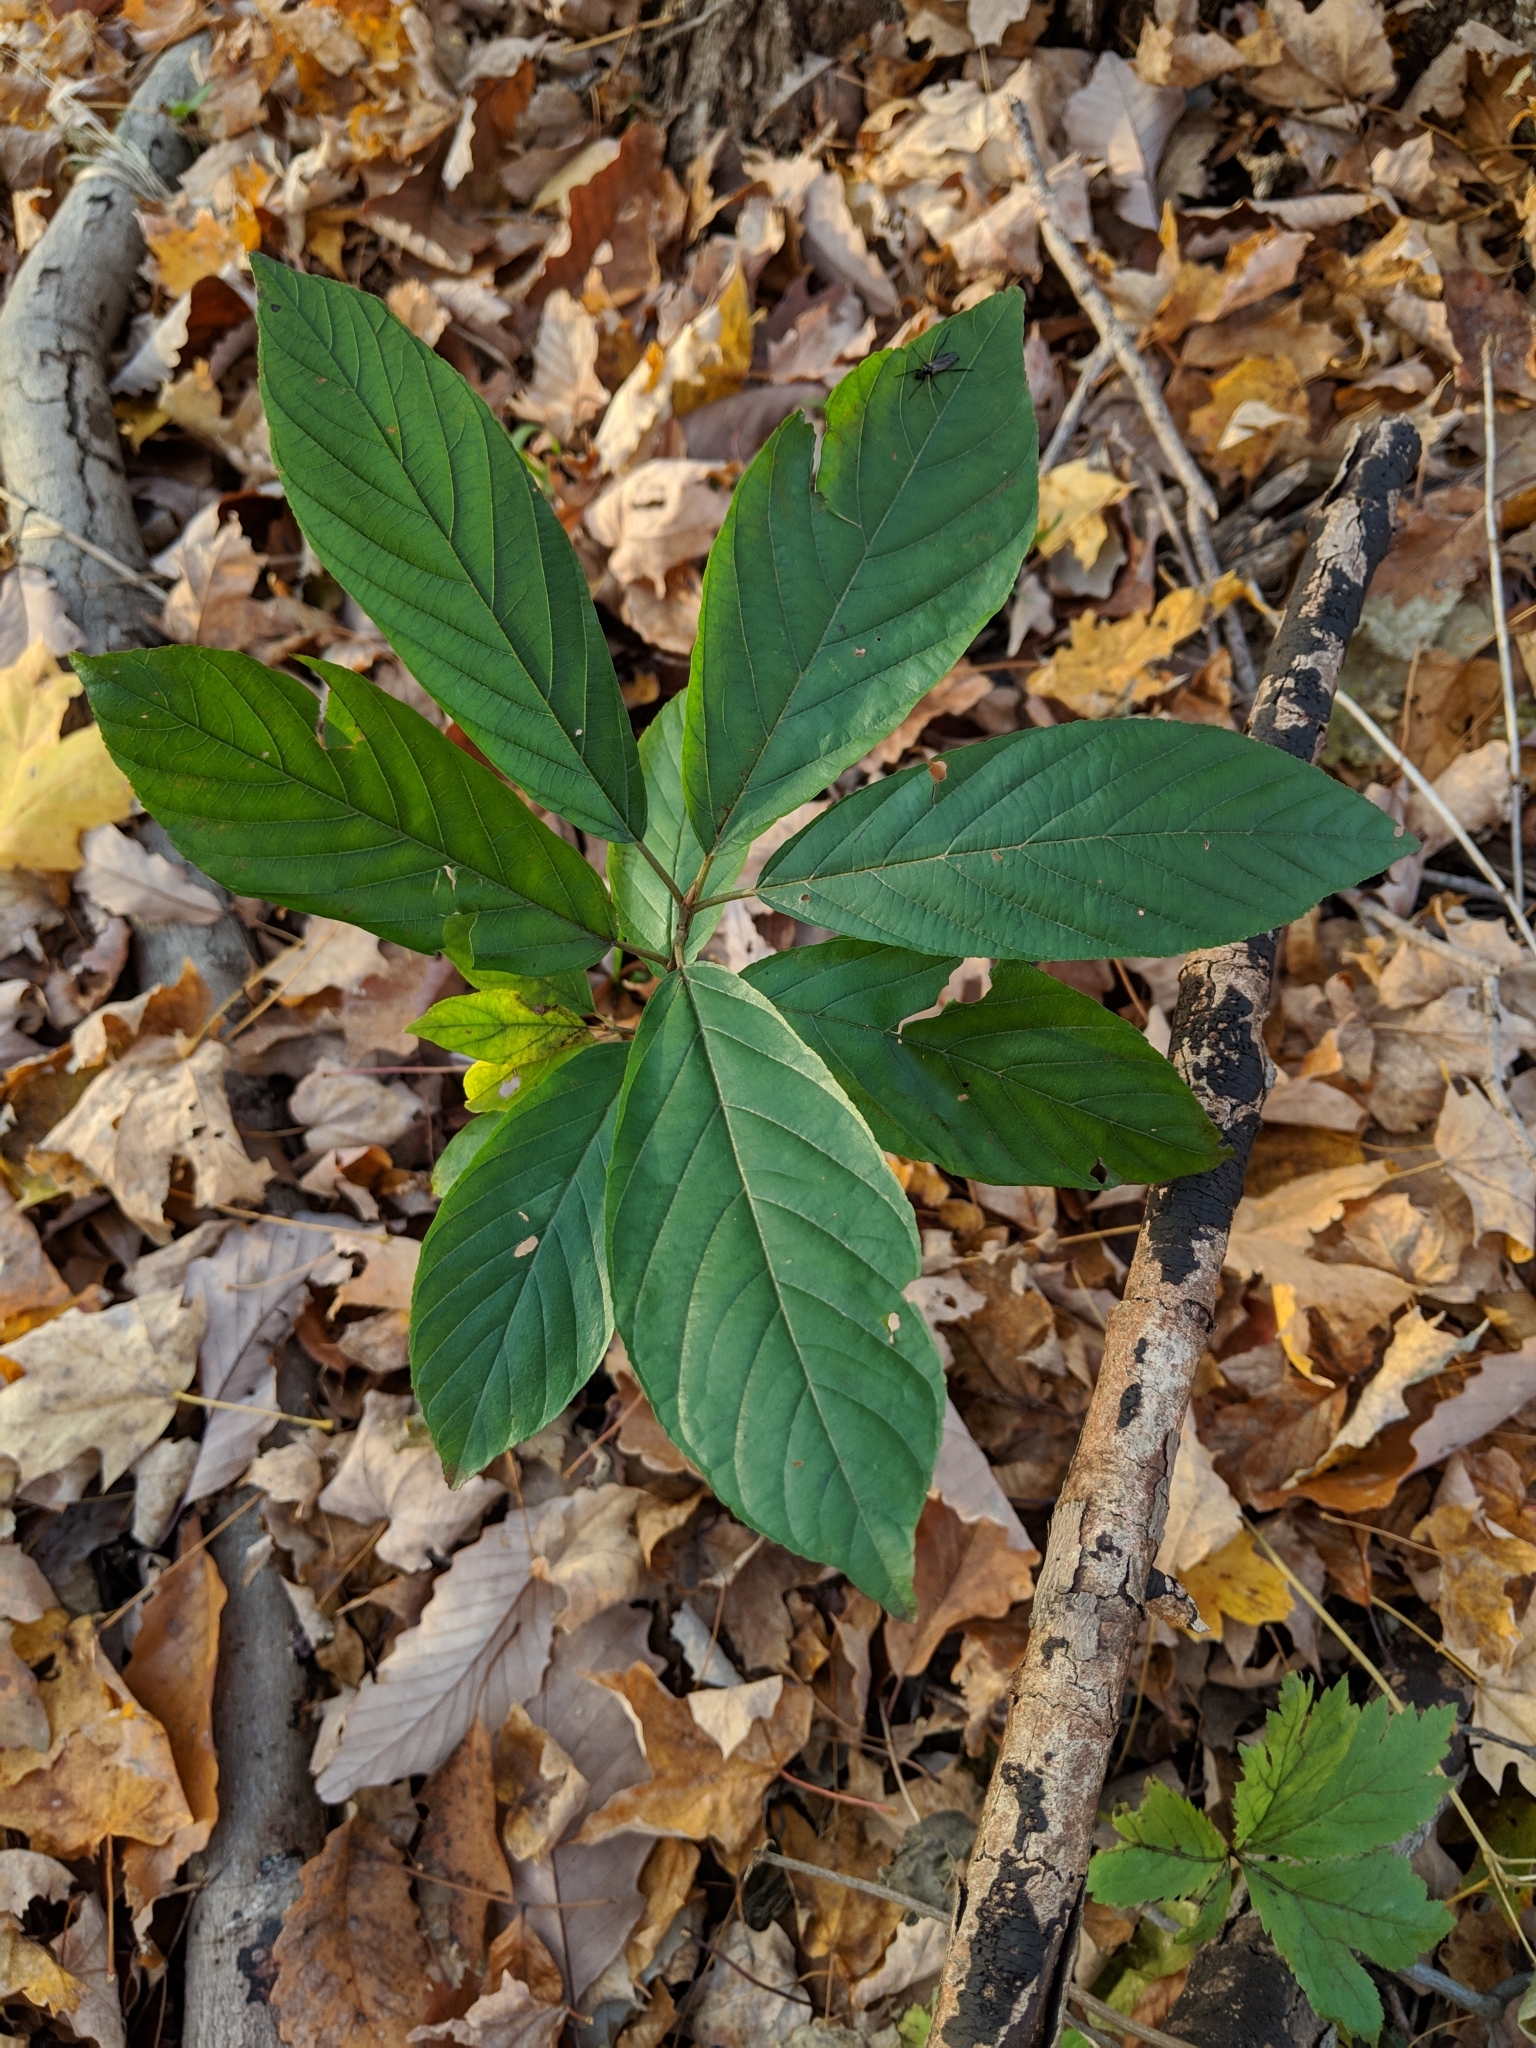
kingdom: Plantae
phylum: Tracheophyta
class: Magnoliopsida
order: Rosales
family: Rhamnaceae
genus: Frangula
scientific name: Frangula caroliniana
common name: Carolina buckthorn
